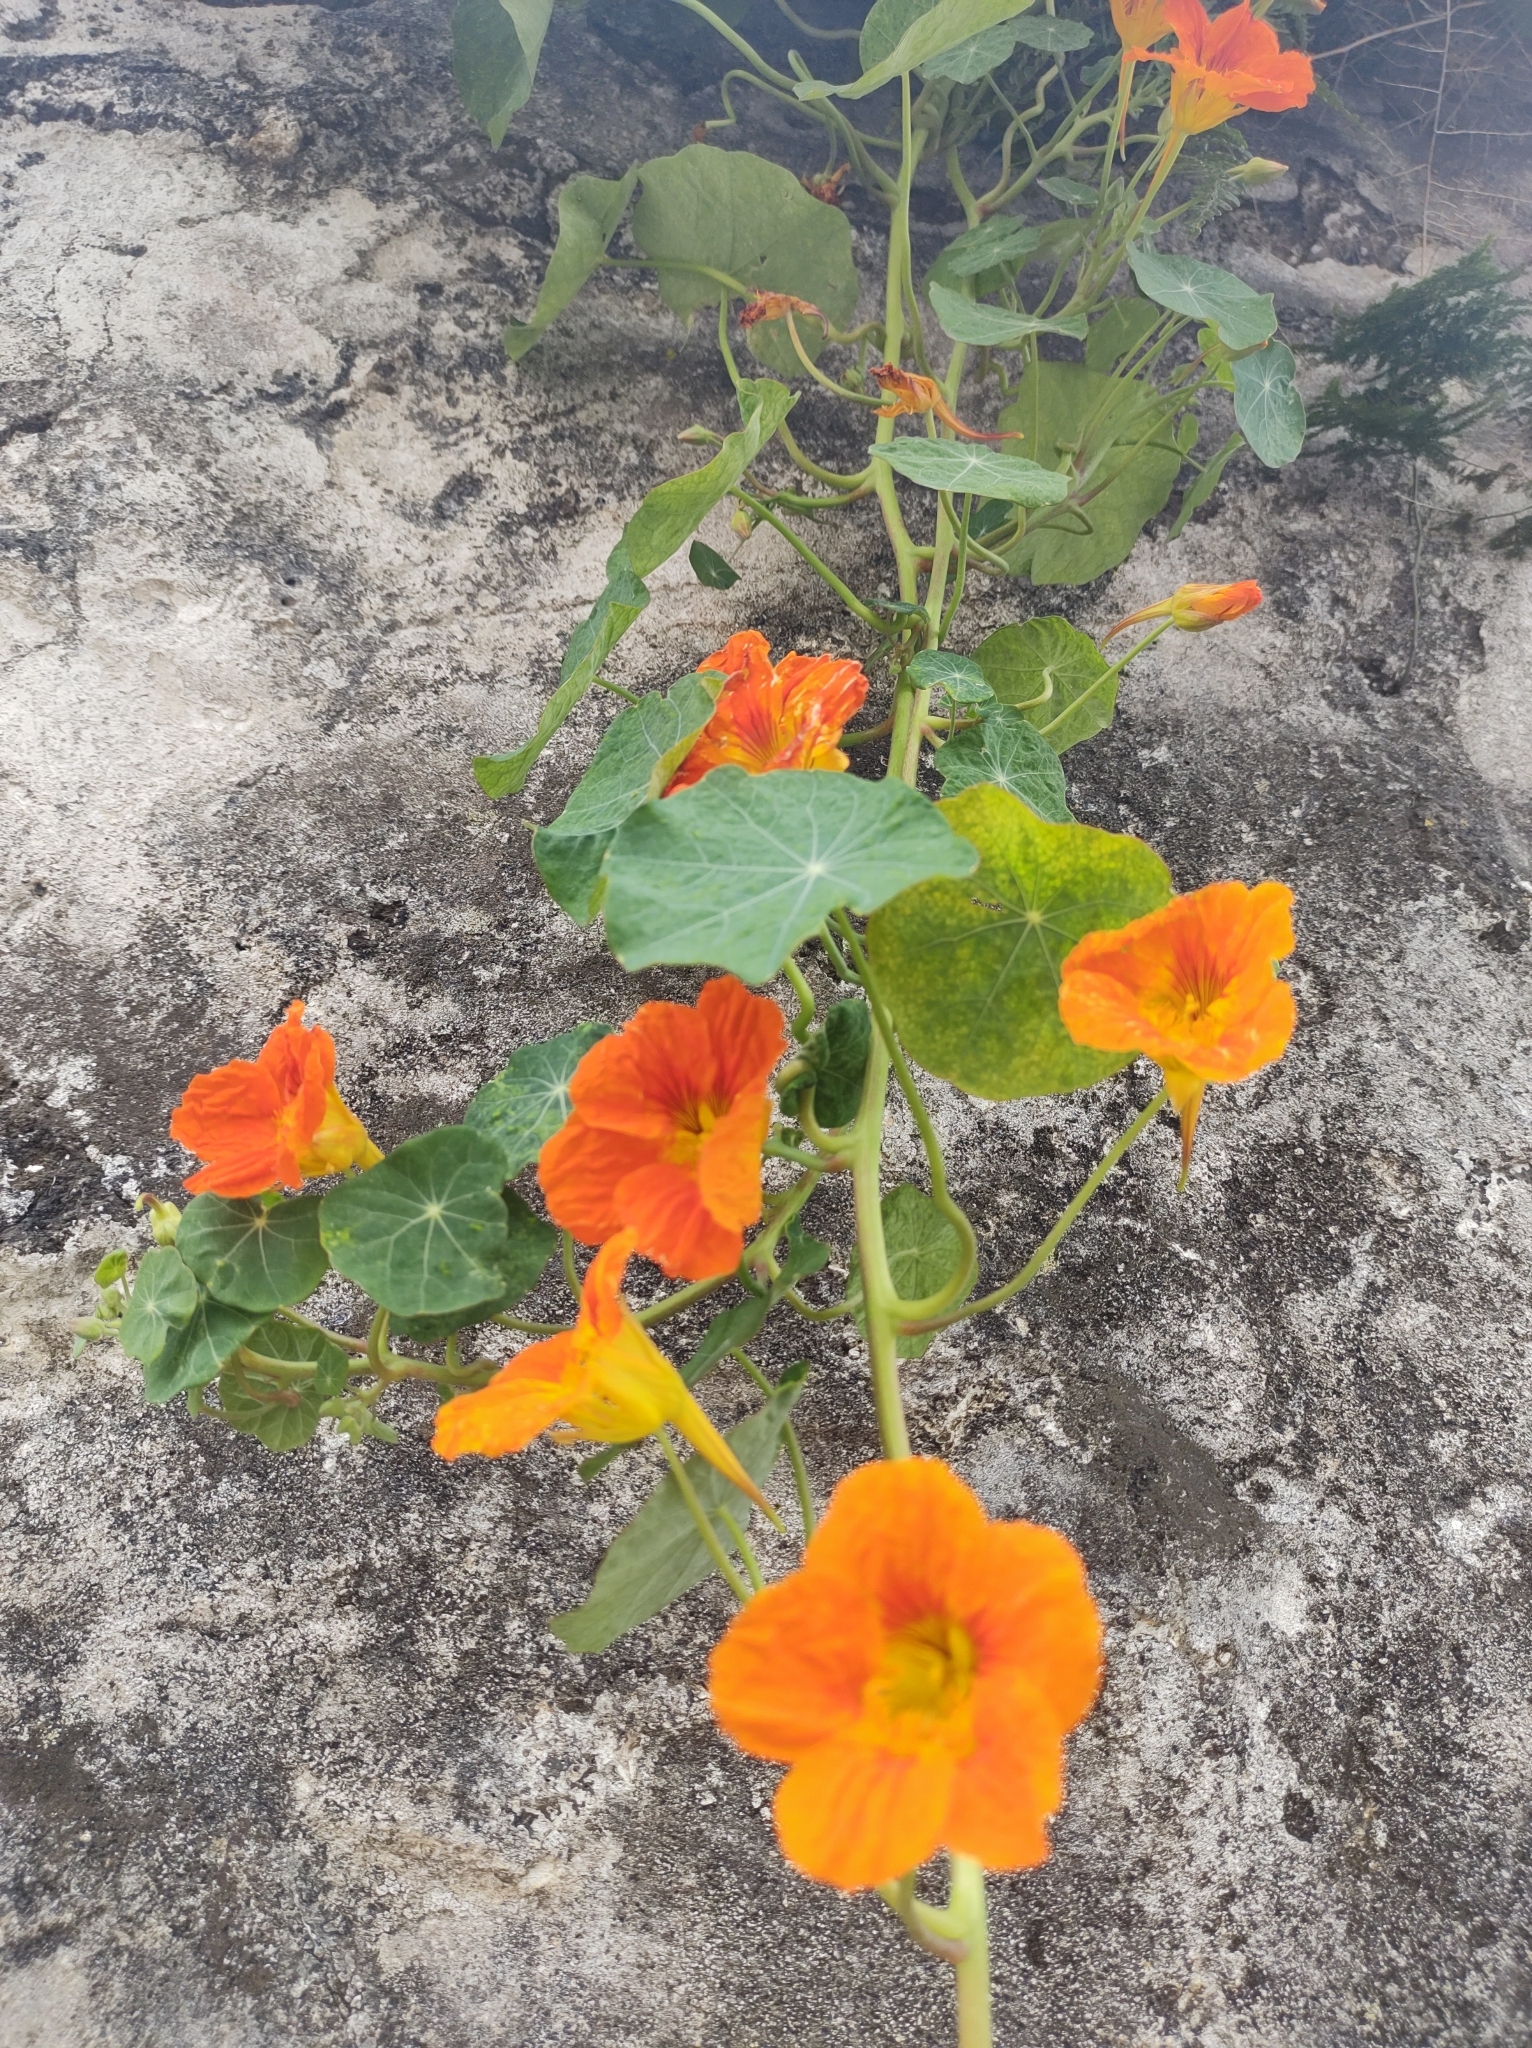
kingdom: Plantae
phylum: Tracheophyta
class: Magnoliopsida
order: Brassicales
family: Tropaeolaceae
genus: Tropaeolum
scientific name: Tropaeolum majus
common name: Nasturtium
